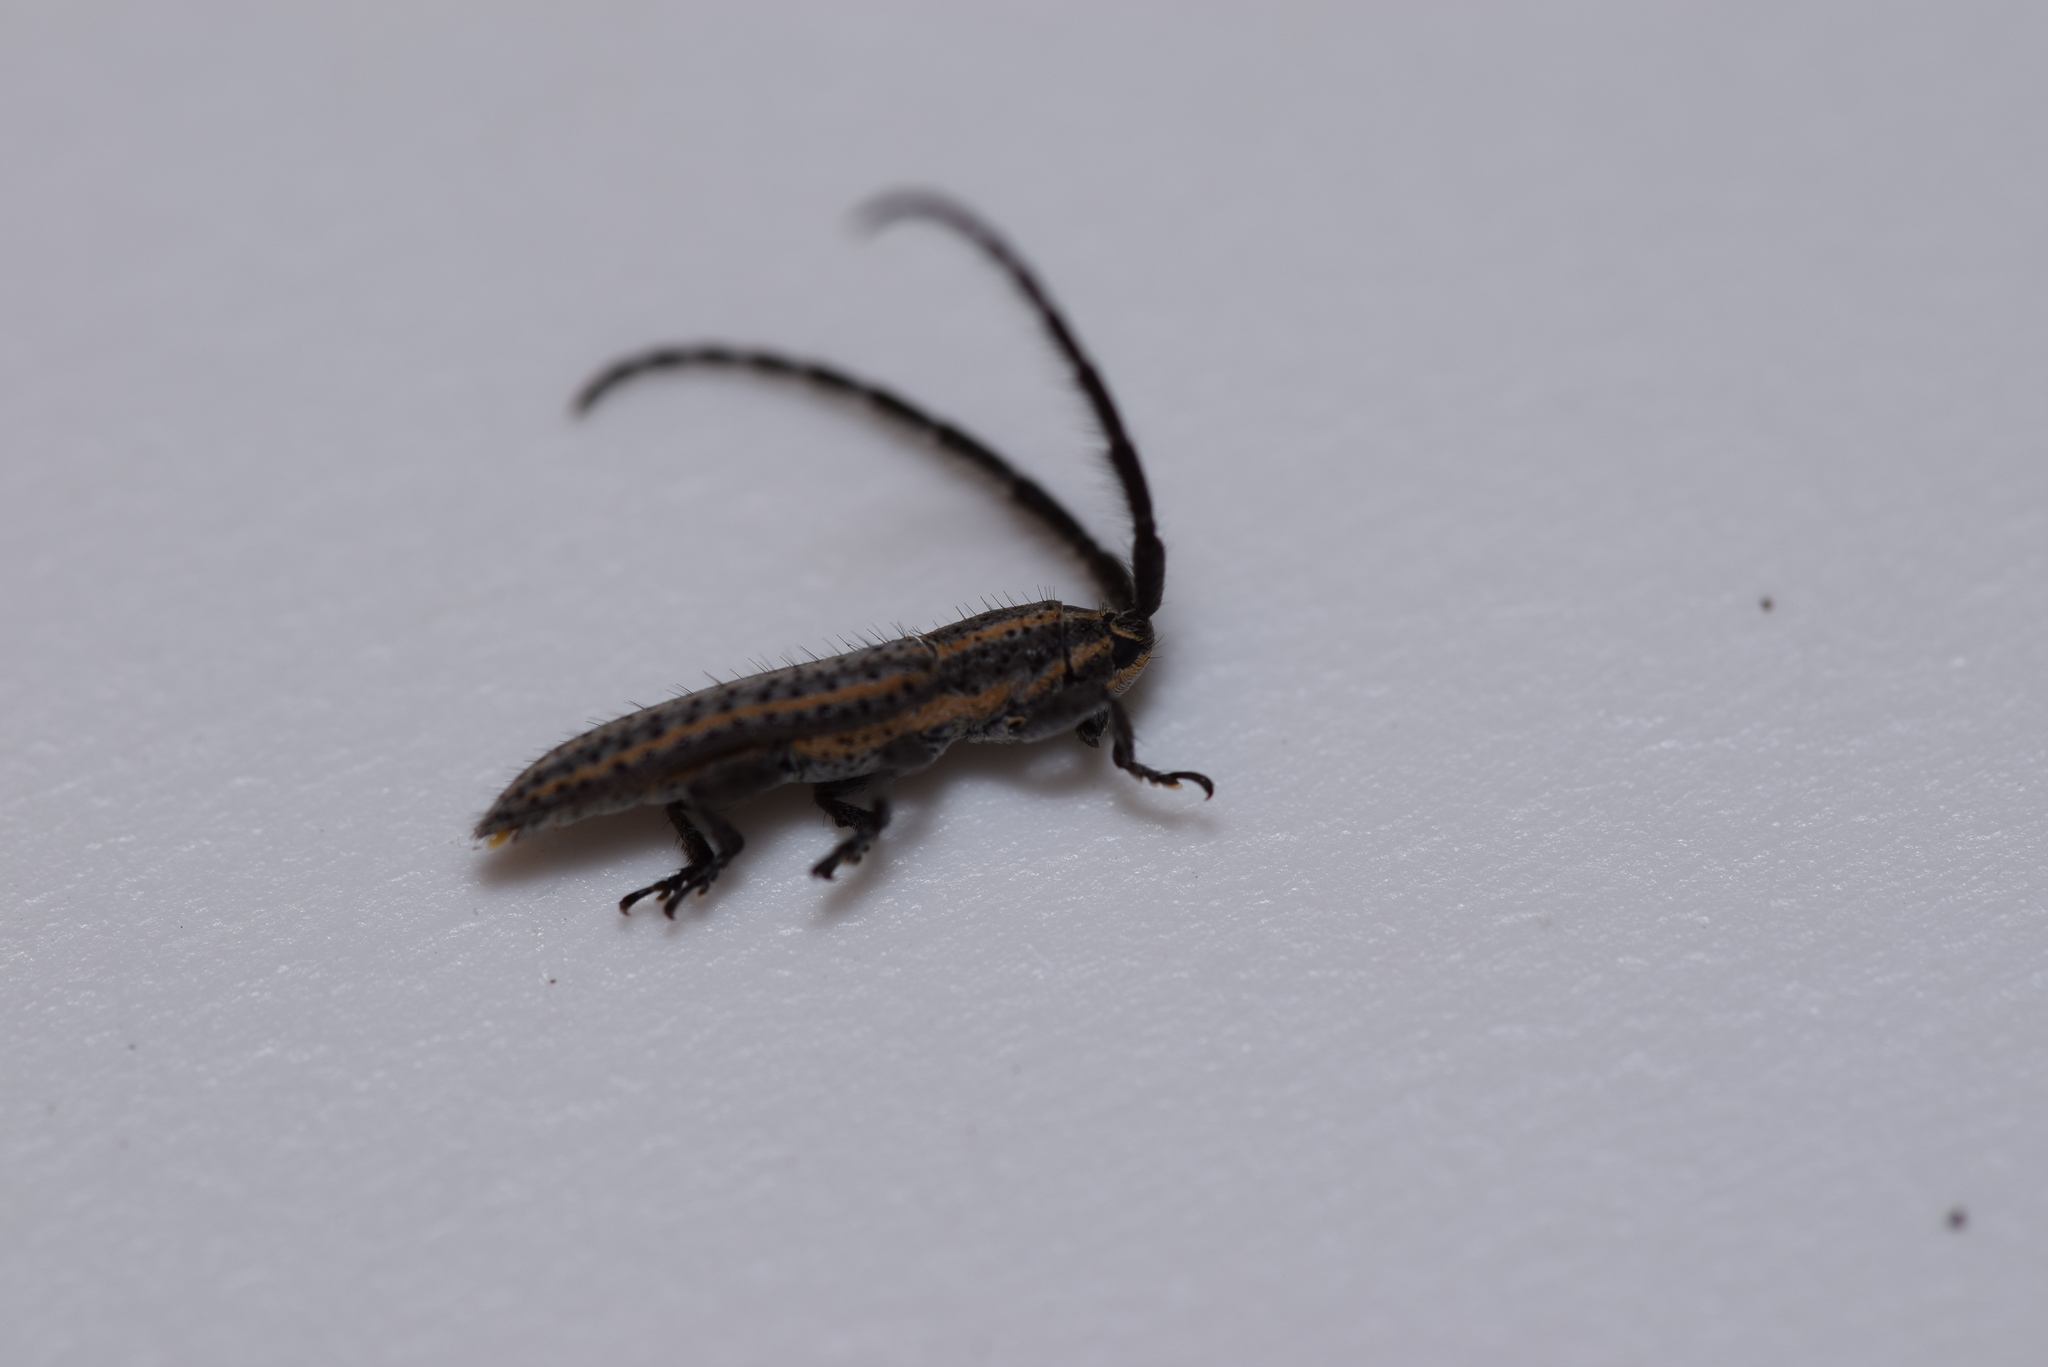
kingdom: Animalia
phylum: Arthropoda
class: Insecta
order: Coleoptera
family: Cerambycidae
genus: Dorcasta
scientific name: Dorcasta cinerea
